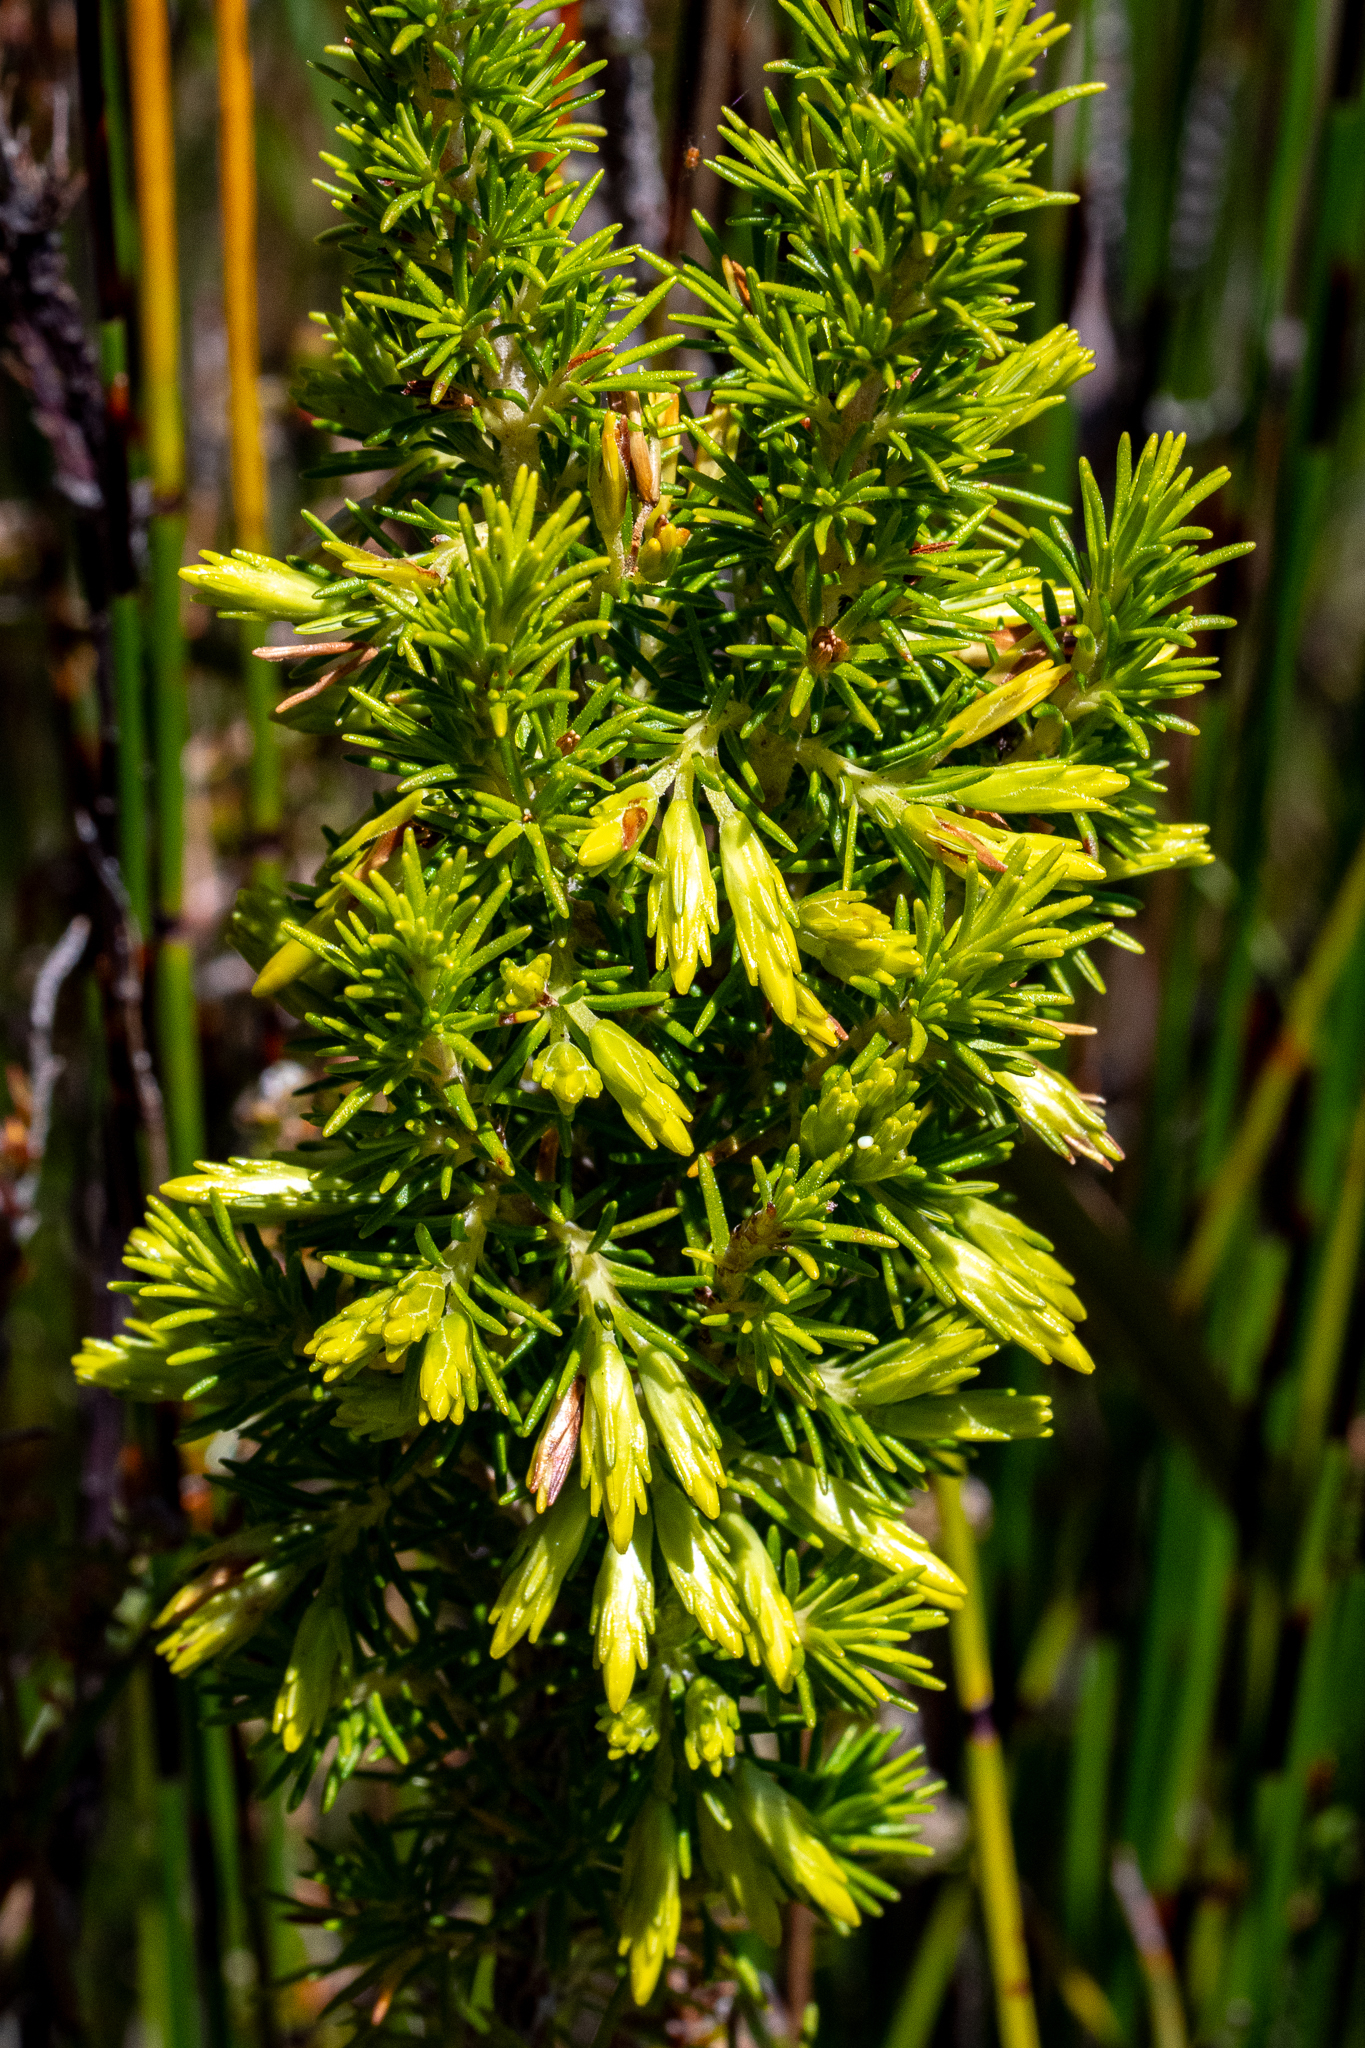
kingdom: Plantae
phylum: Tracheophyta
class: Magnoliopsida
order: Ericales
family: Ericaceae
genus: Erica
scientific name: Erica coccinea
